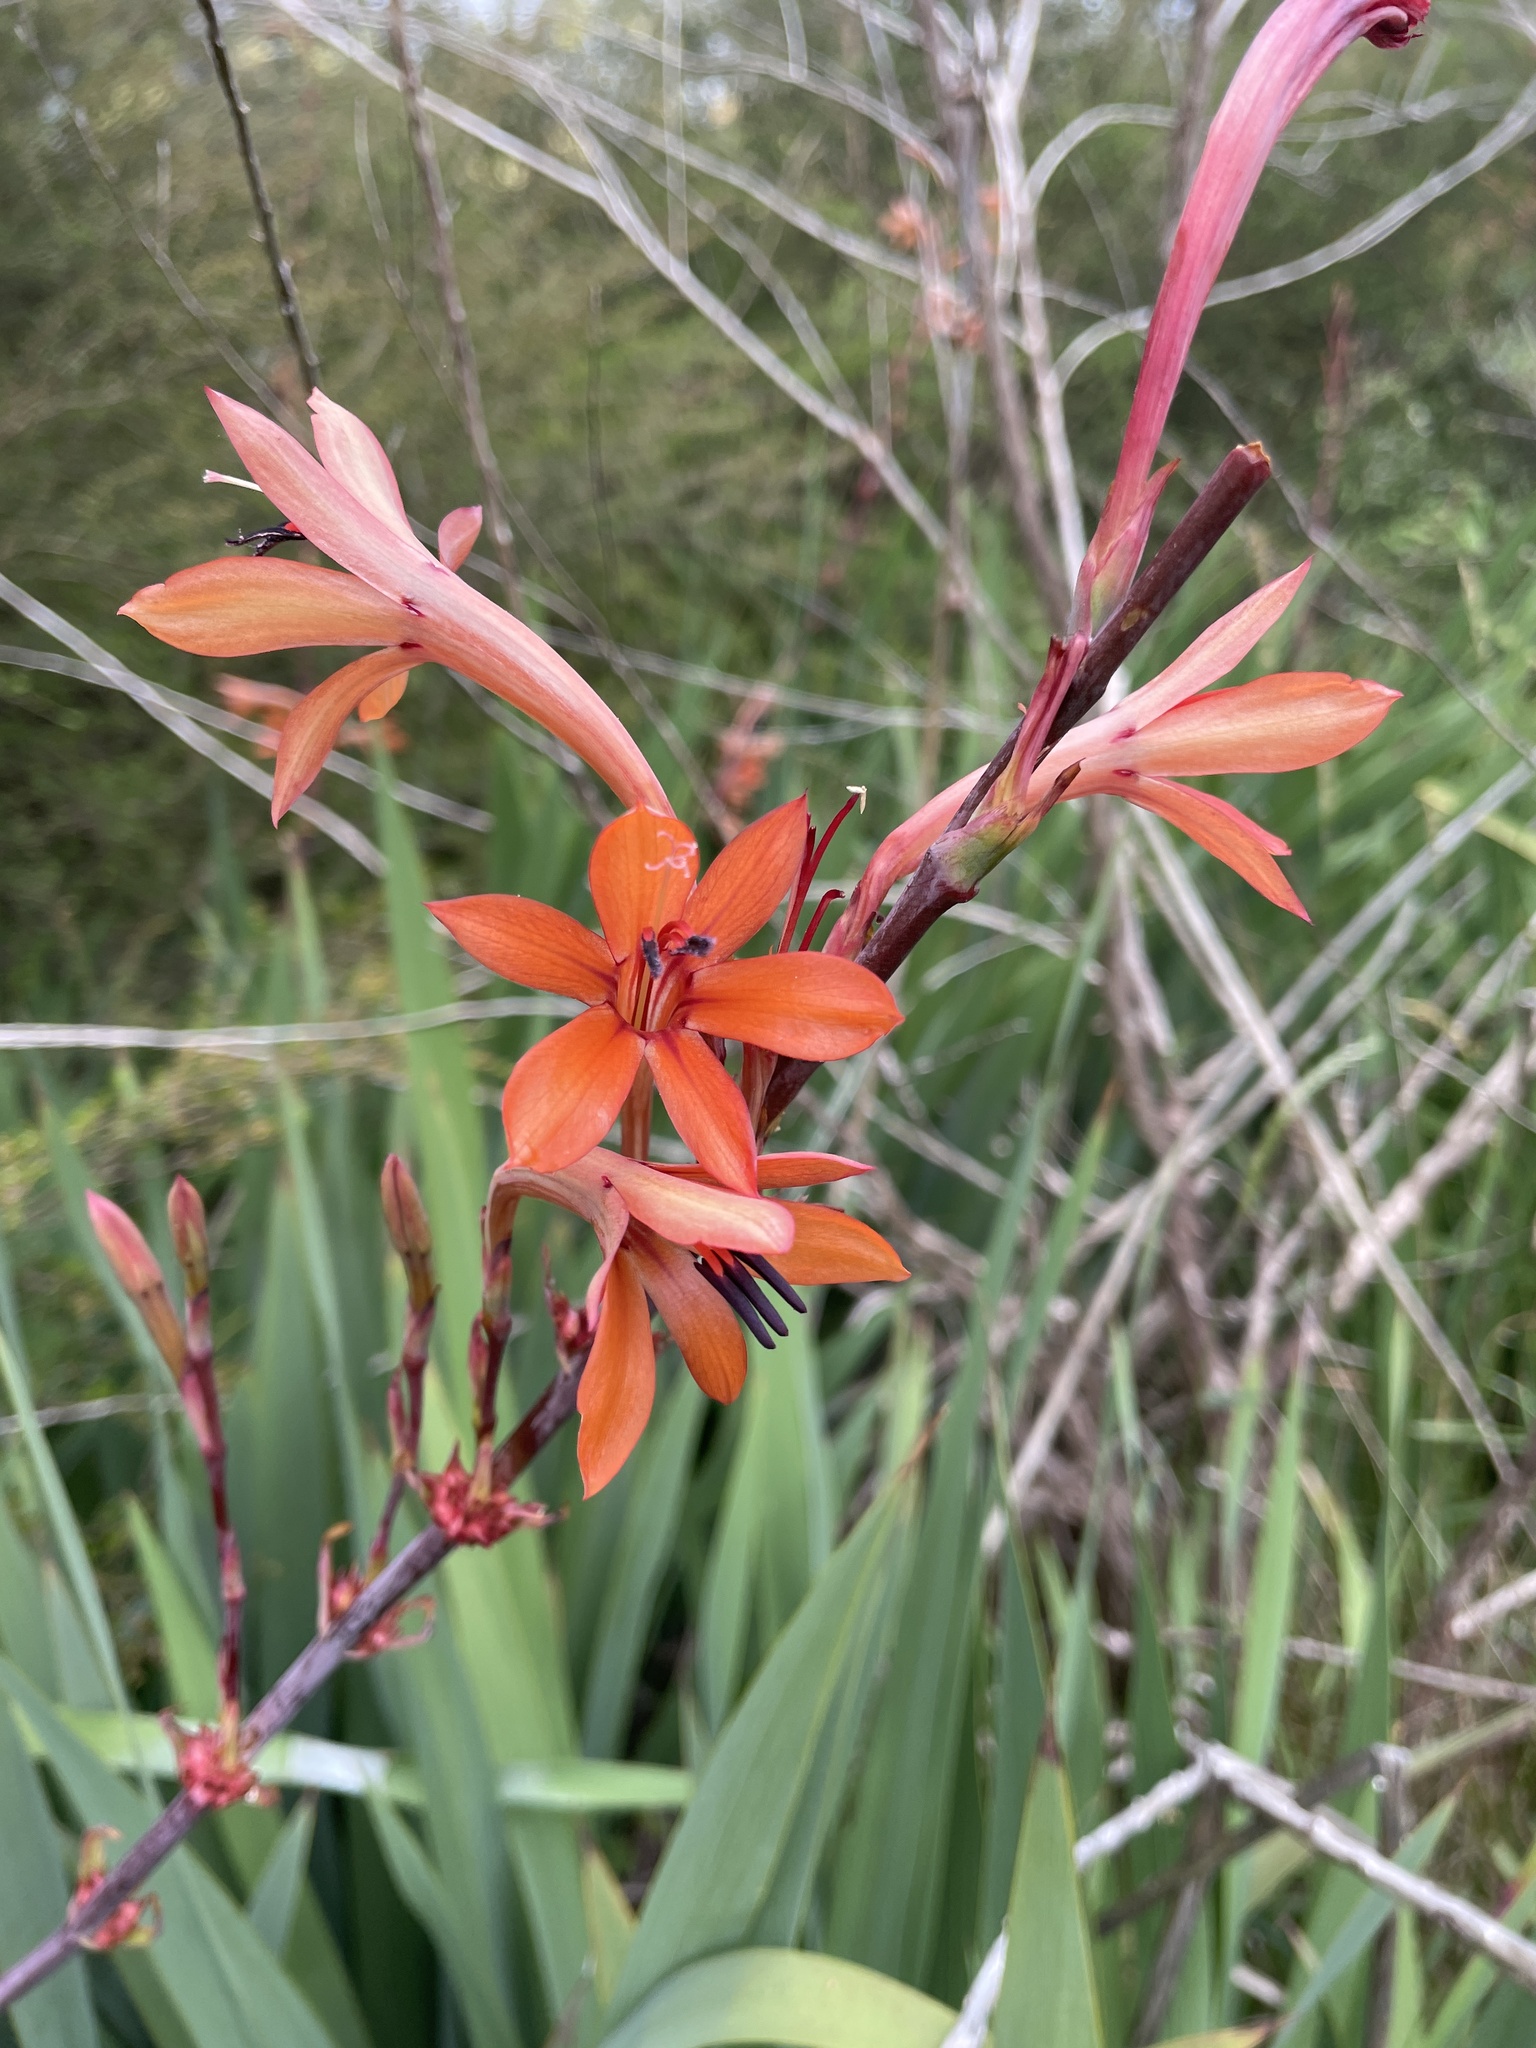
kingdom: Plantae
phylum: Tracheophyta
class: Liliopsida
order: Asparagales
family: Iridaceae
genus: Watsonia
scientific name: Watsonia meriana
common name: Bulbil bugle-lily
